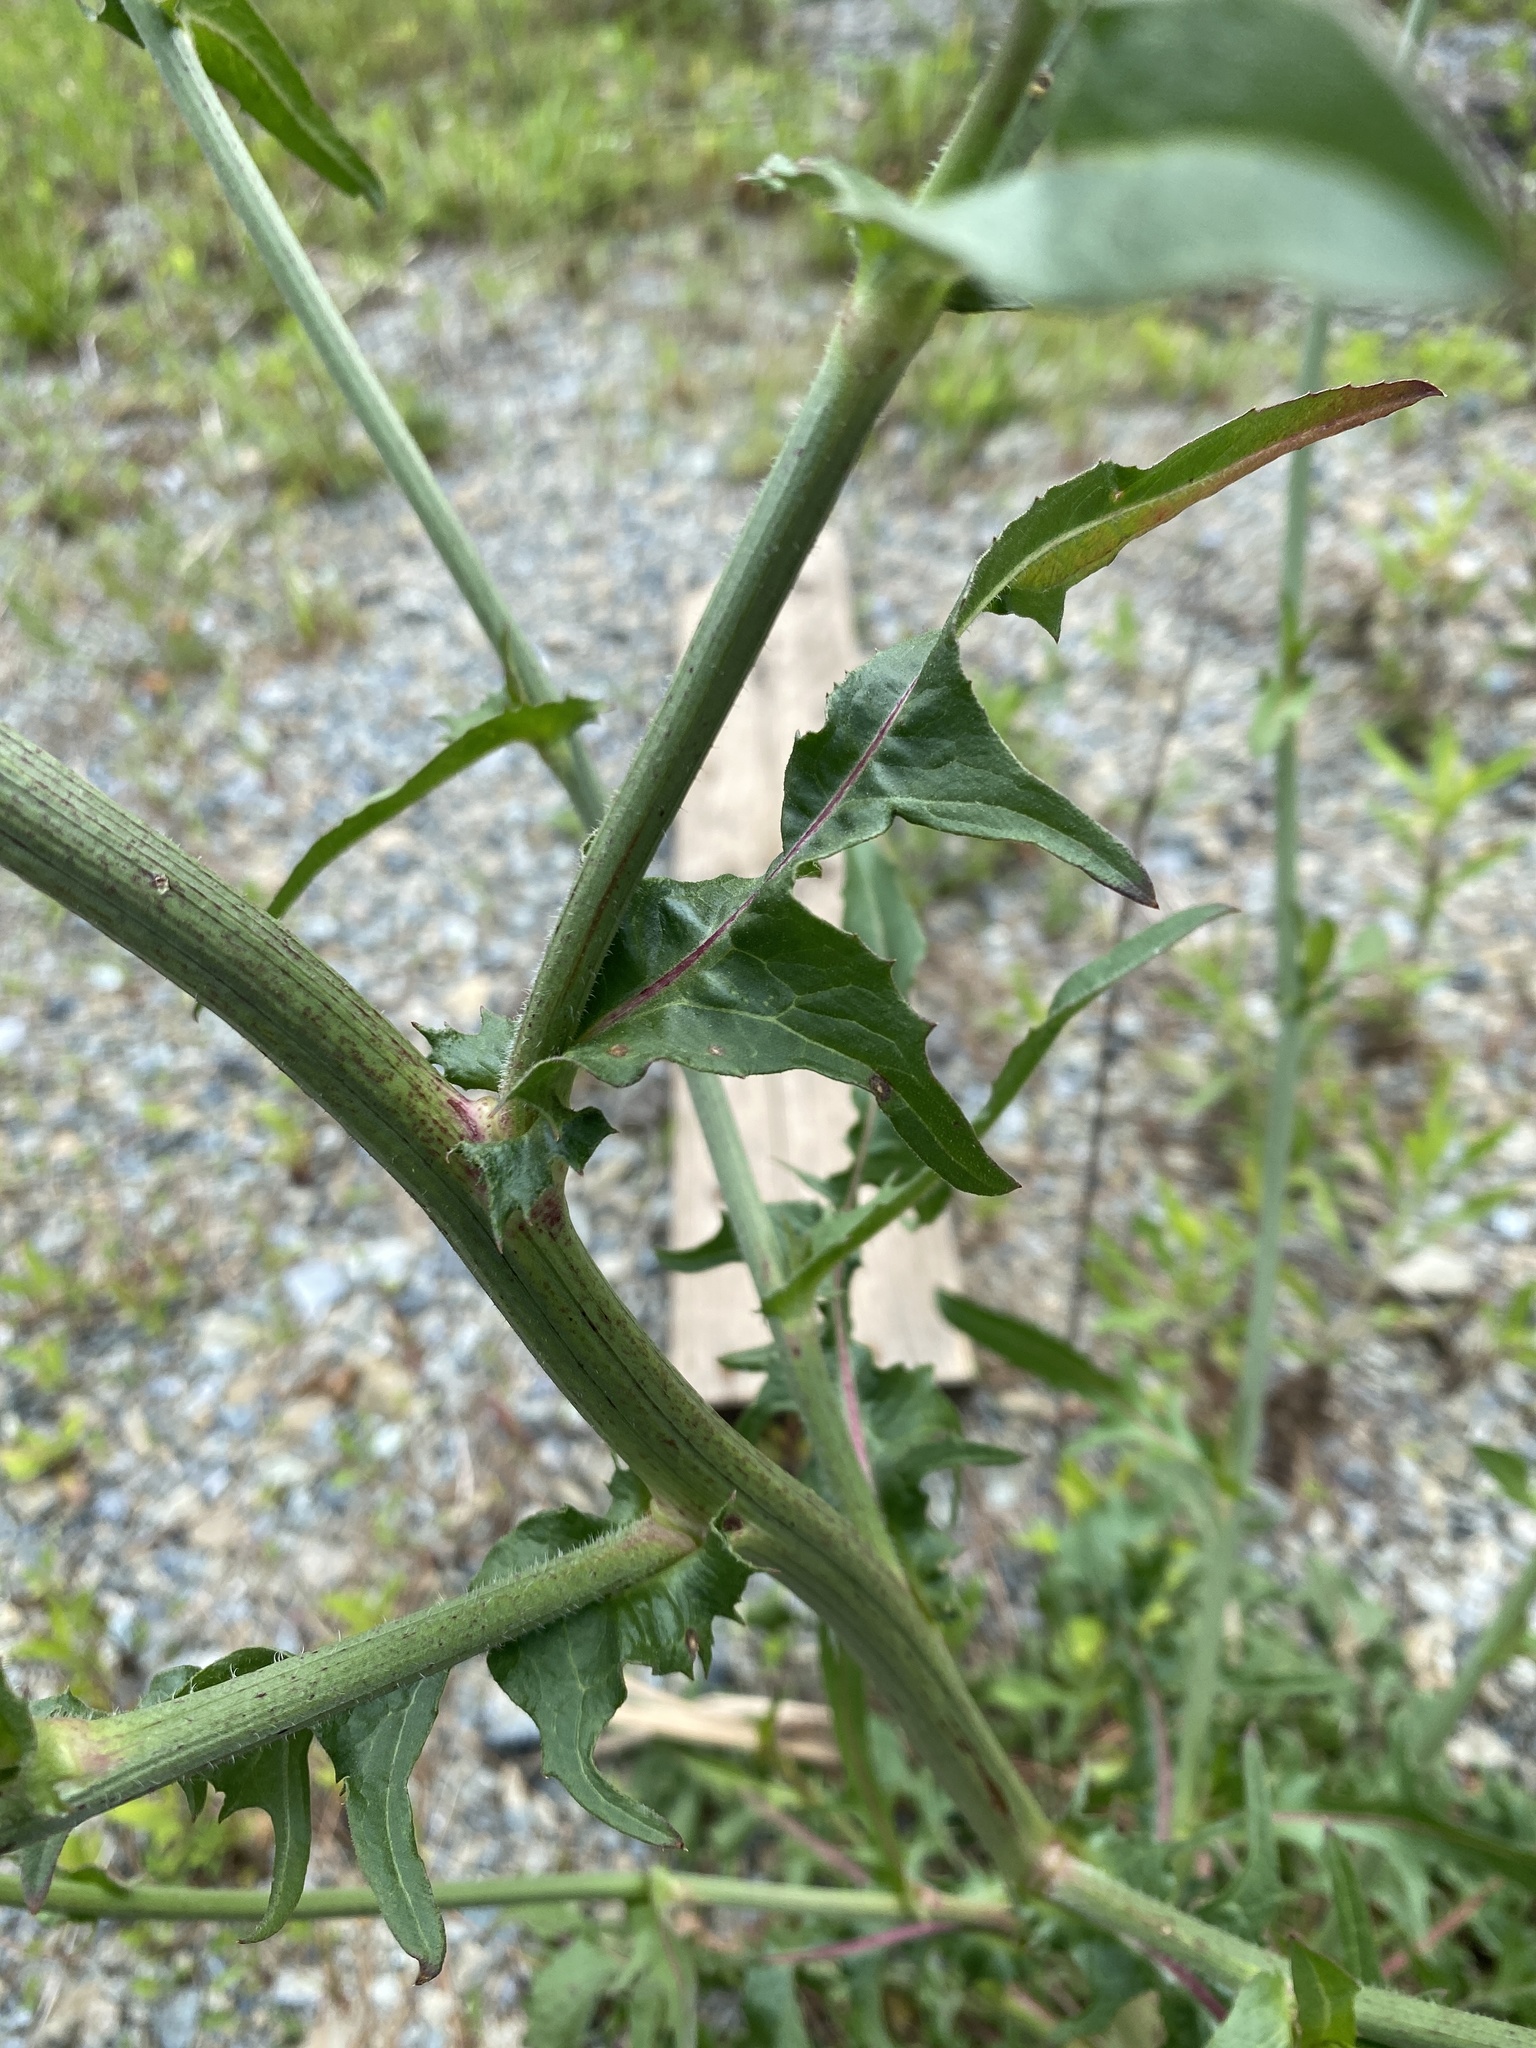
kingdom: Plantae
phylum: Tracheophyta
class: Magnoliopsida
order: Asterales
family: Asteraceae
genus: Cichorium
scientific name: Cichorium intybus
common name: Chicory
